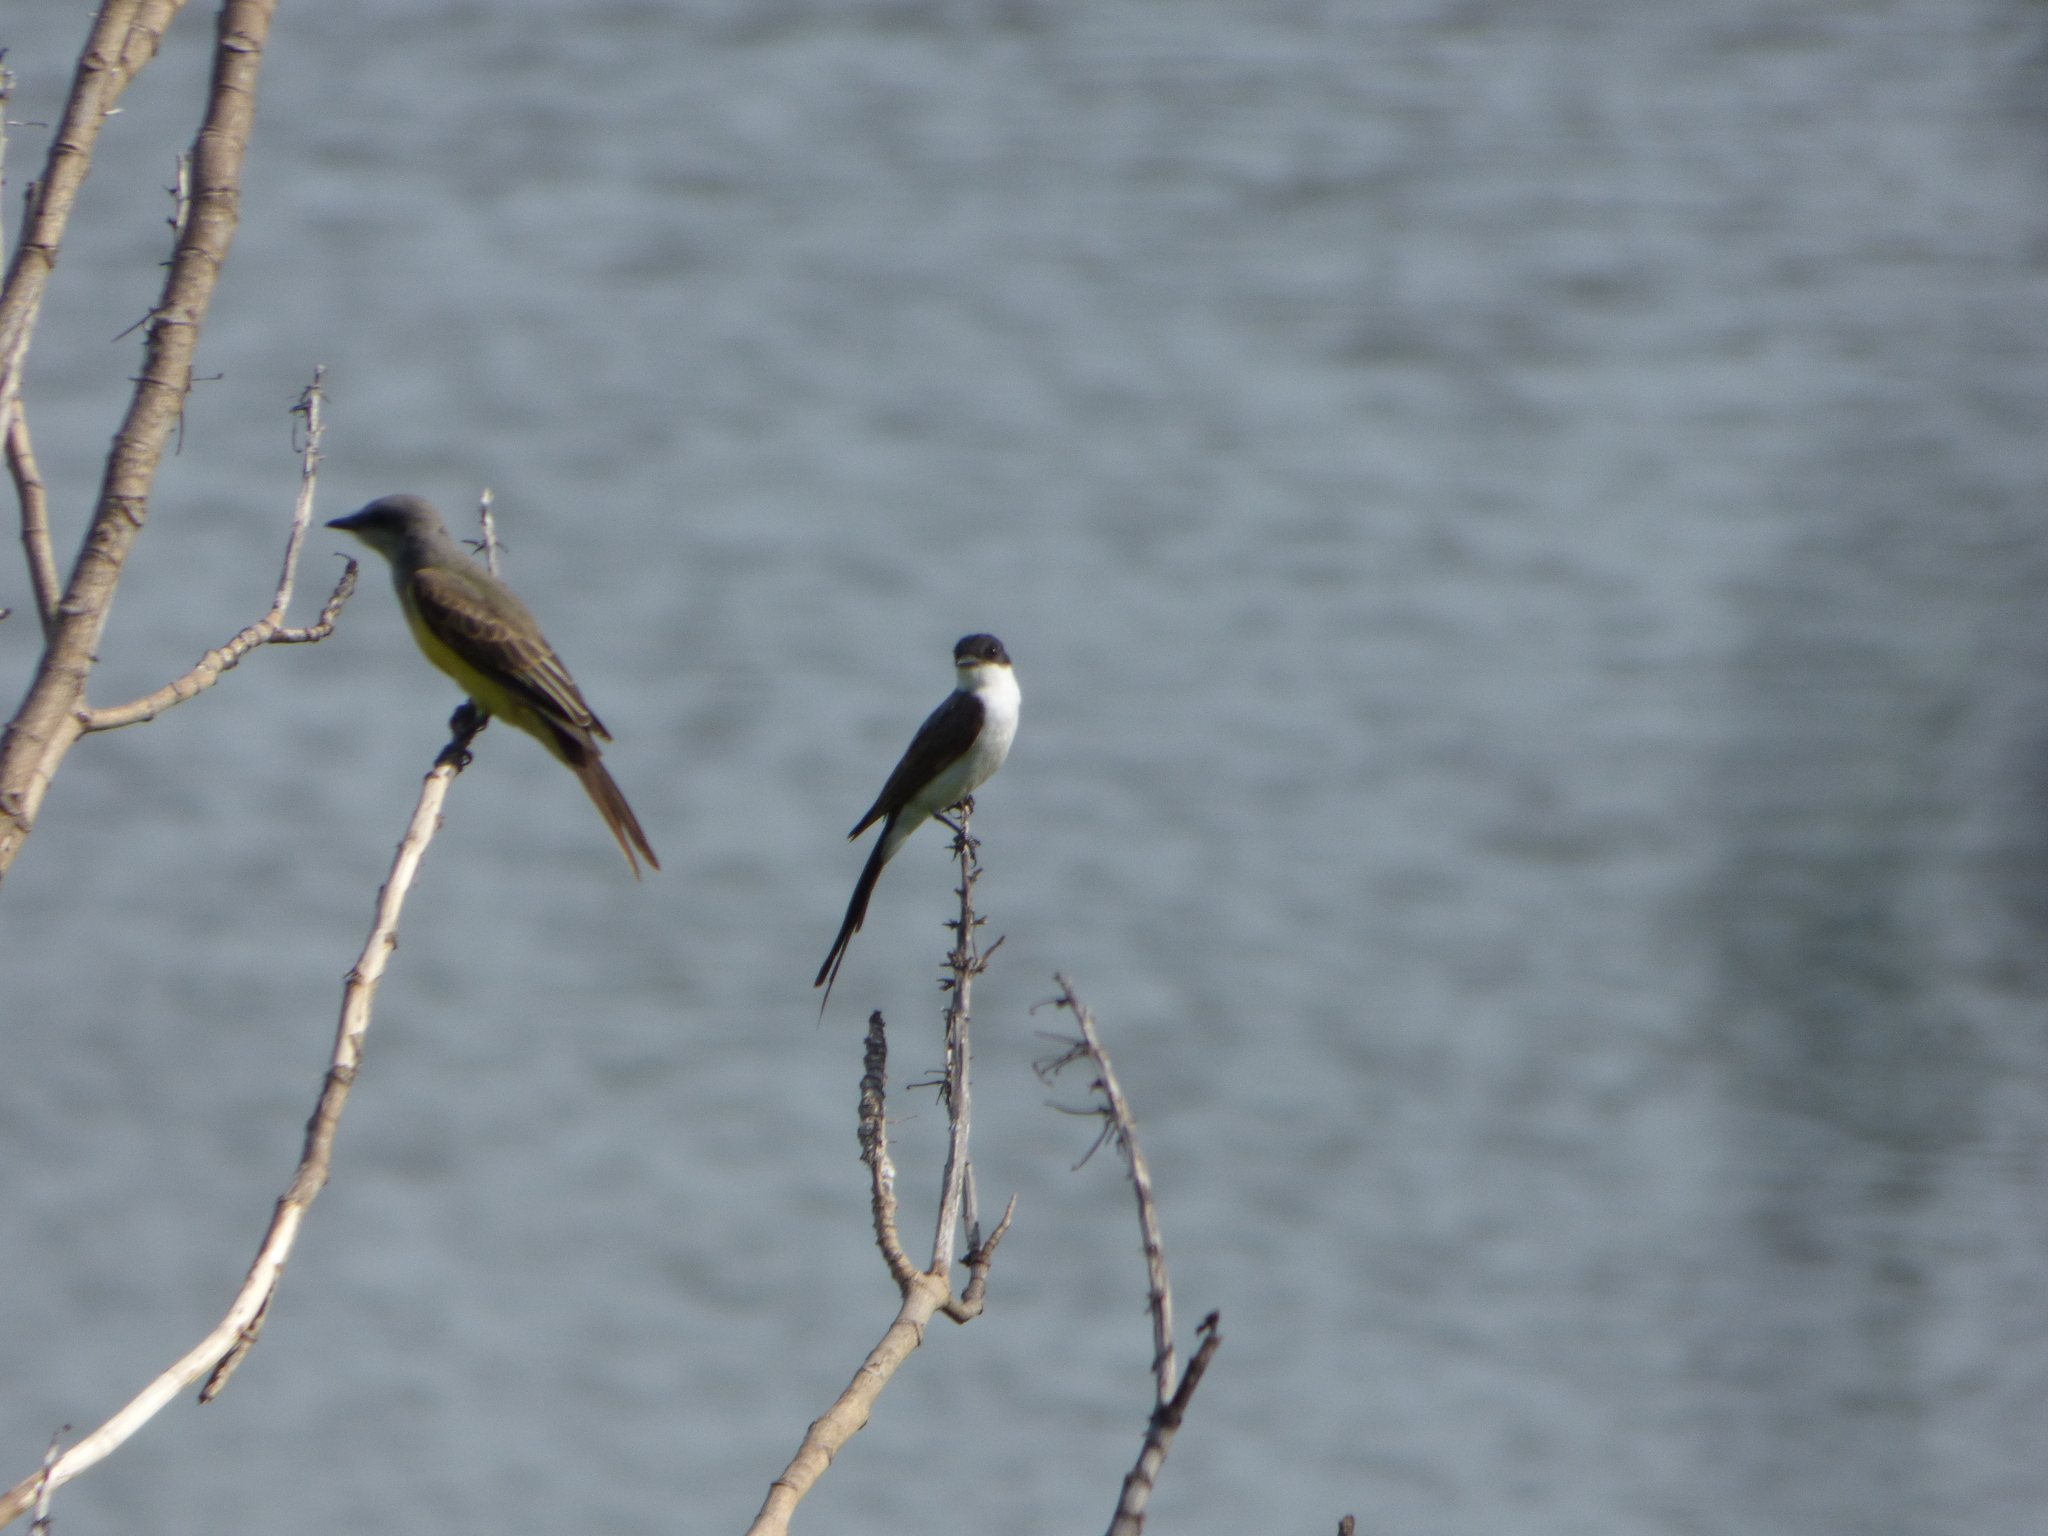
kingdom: Animalia
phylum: Chordata
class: Aves
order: Passeriformes
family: Tyrannidae
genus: Tyrannus
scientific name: Tyrannus melancholicus
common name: Tropical kingbird
